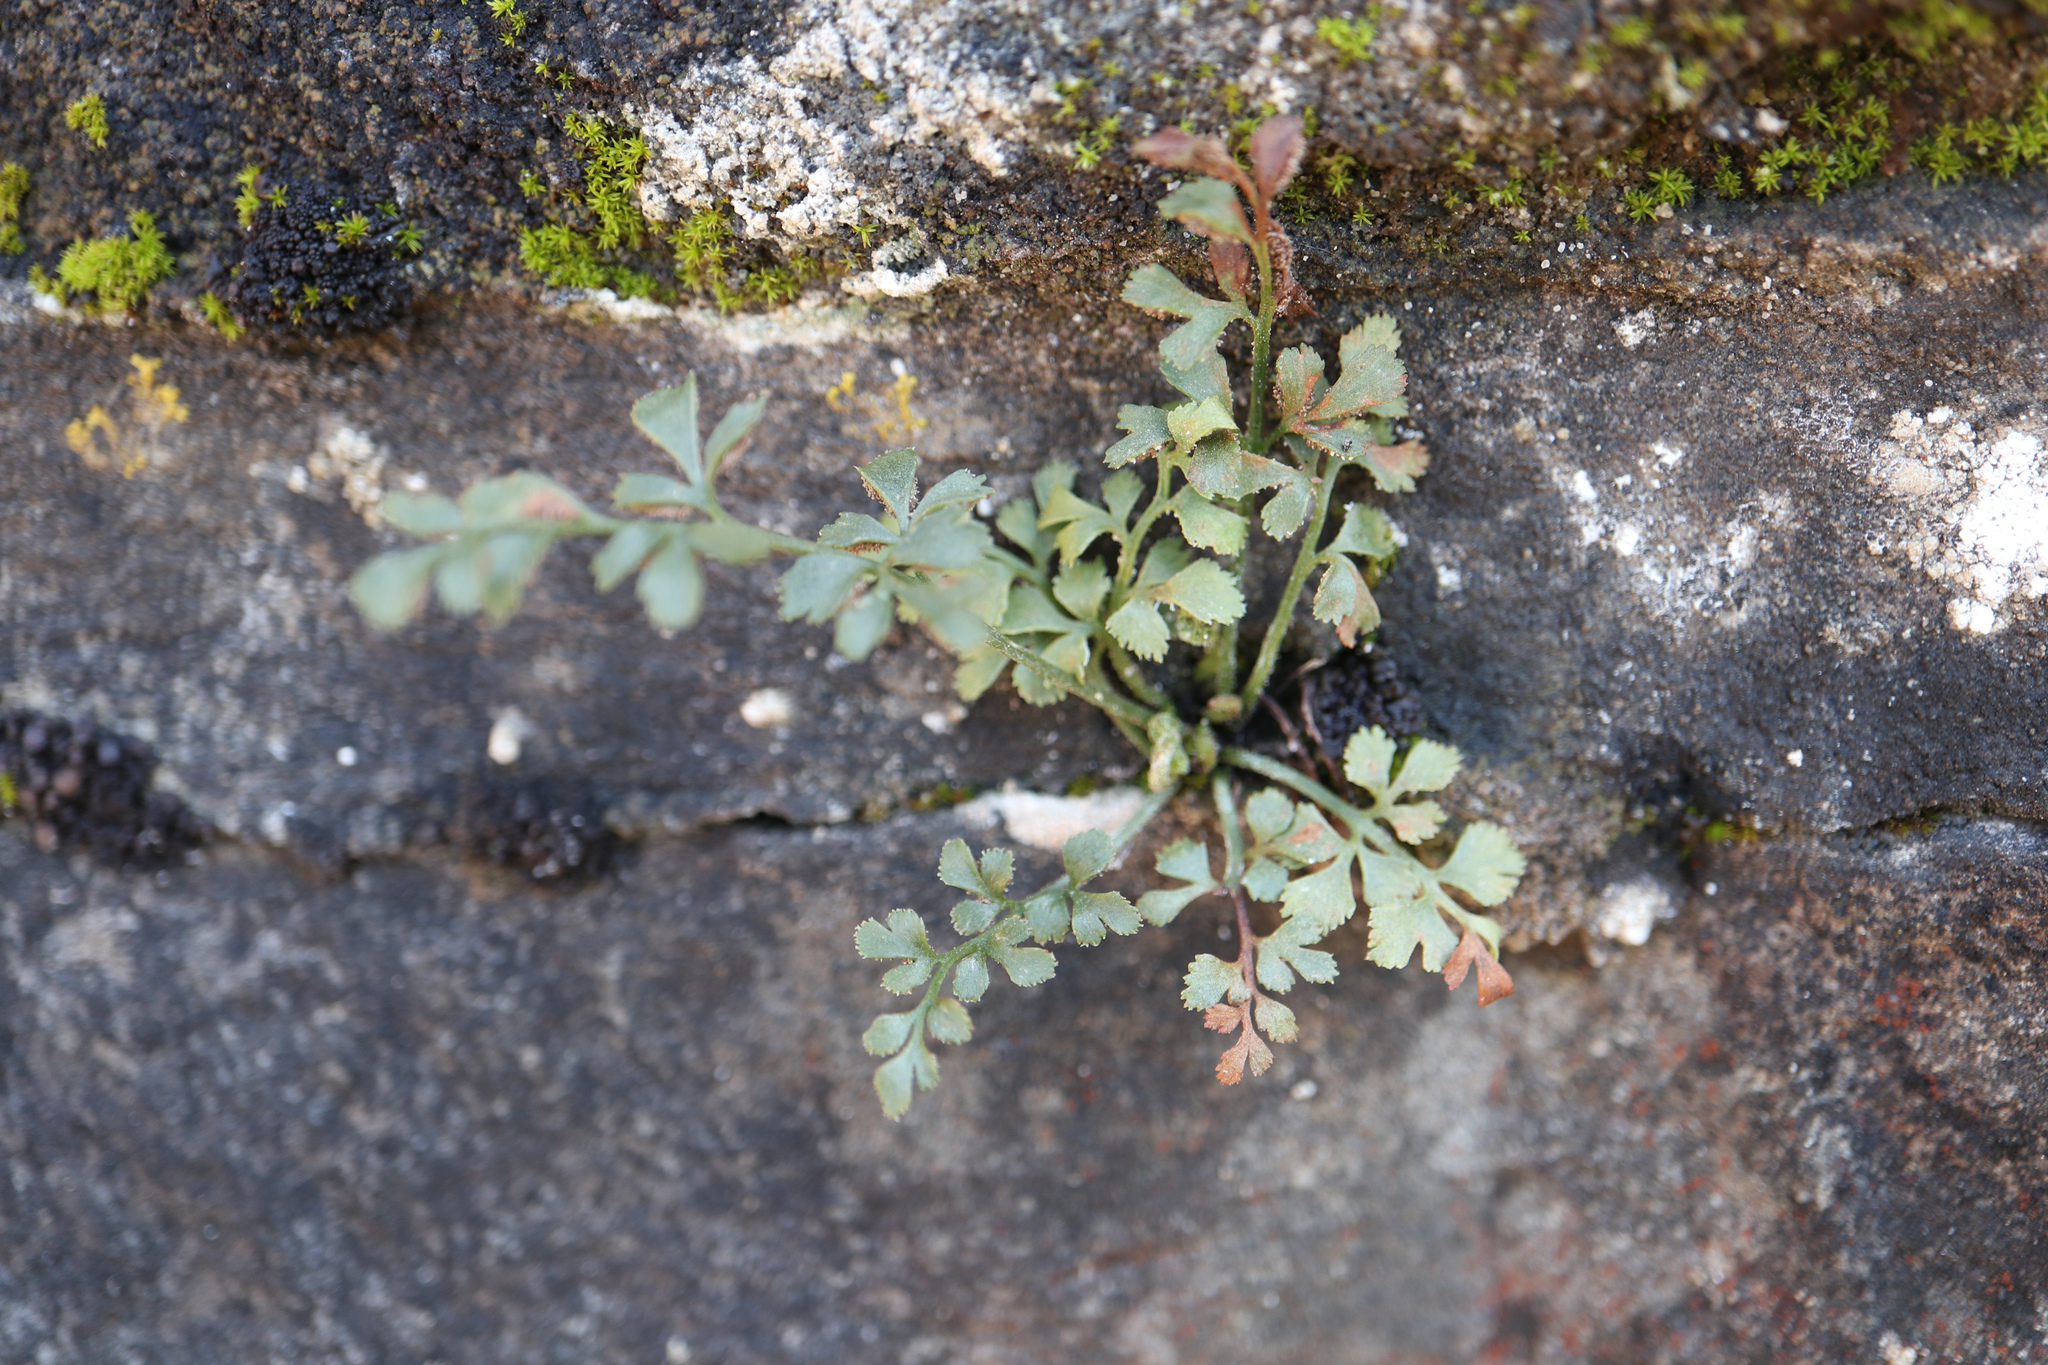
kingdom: Plantae
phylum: Tracheophyta
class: Polypodiopsida
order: Polypodiales
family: Aspleniaceae
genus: Asplenium
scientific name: Asplenium ruta-muraria
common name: Wall-rue
